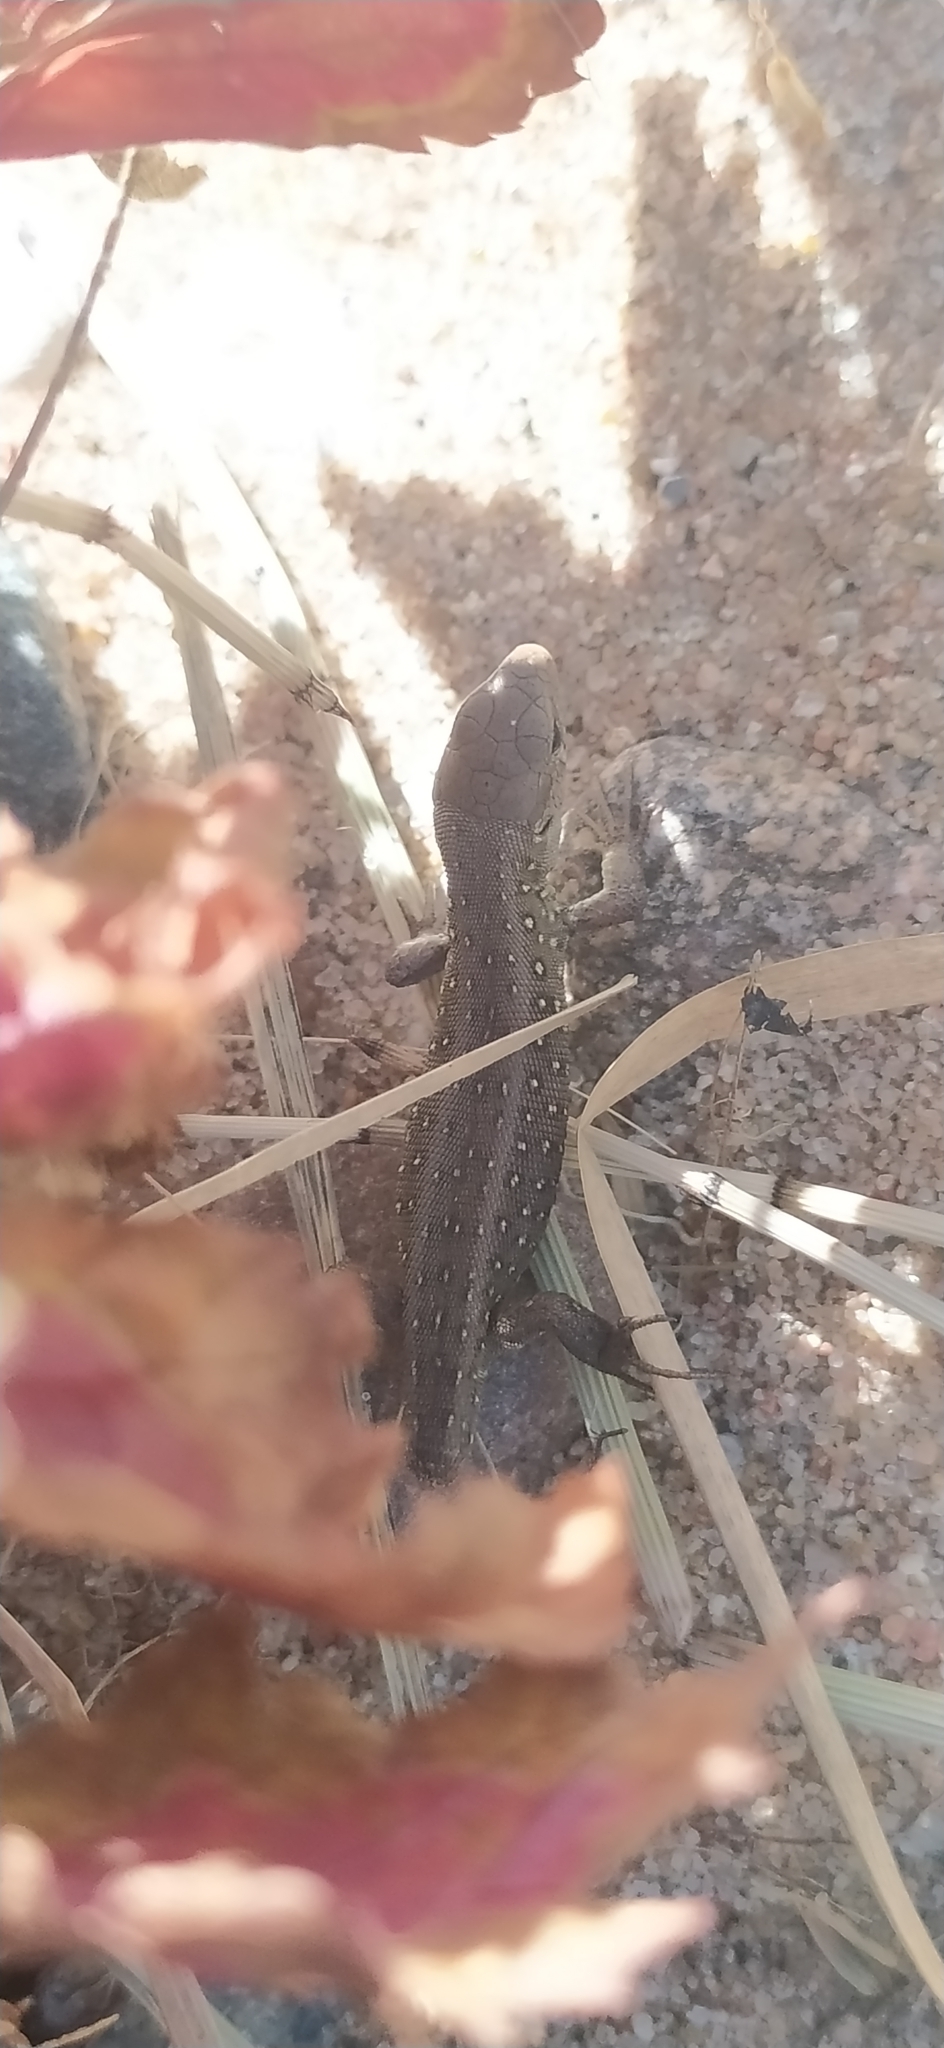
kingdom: Animalia
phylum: Chordata
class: Squamata
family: Lacertidae
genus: Lacerta
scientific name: Lacerta agilis
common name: Sand lizard
